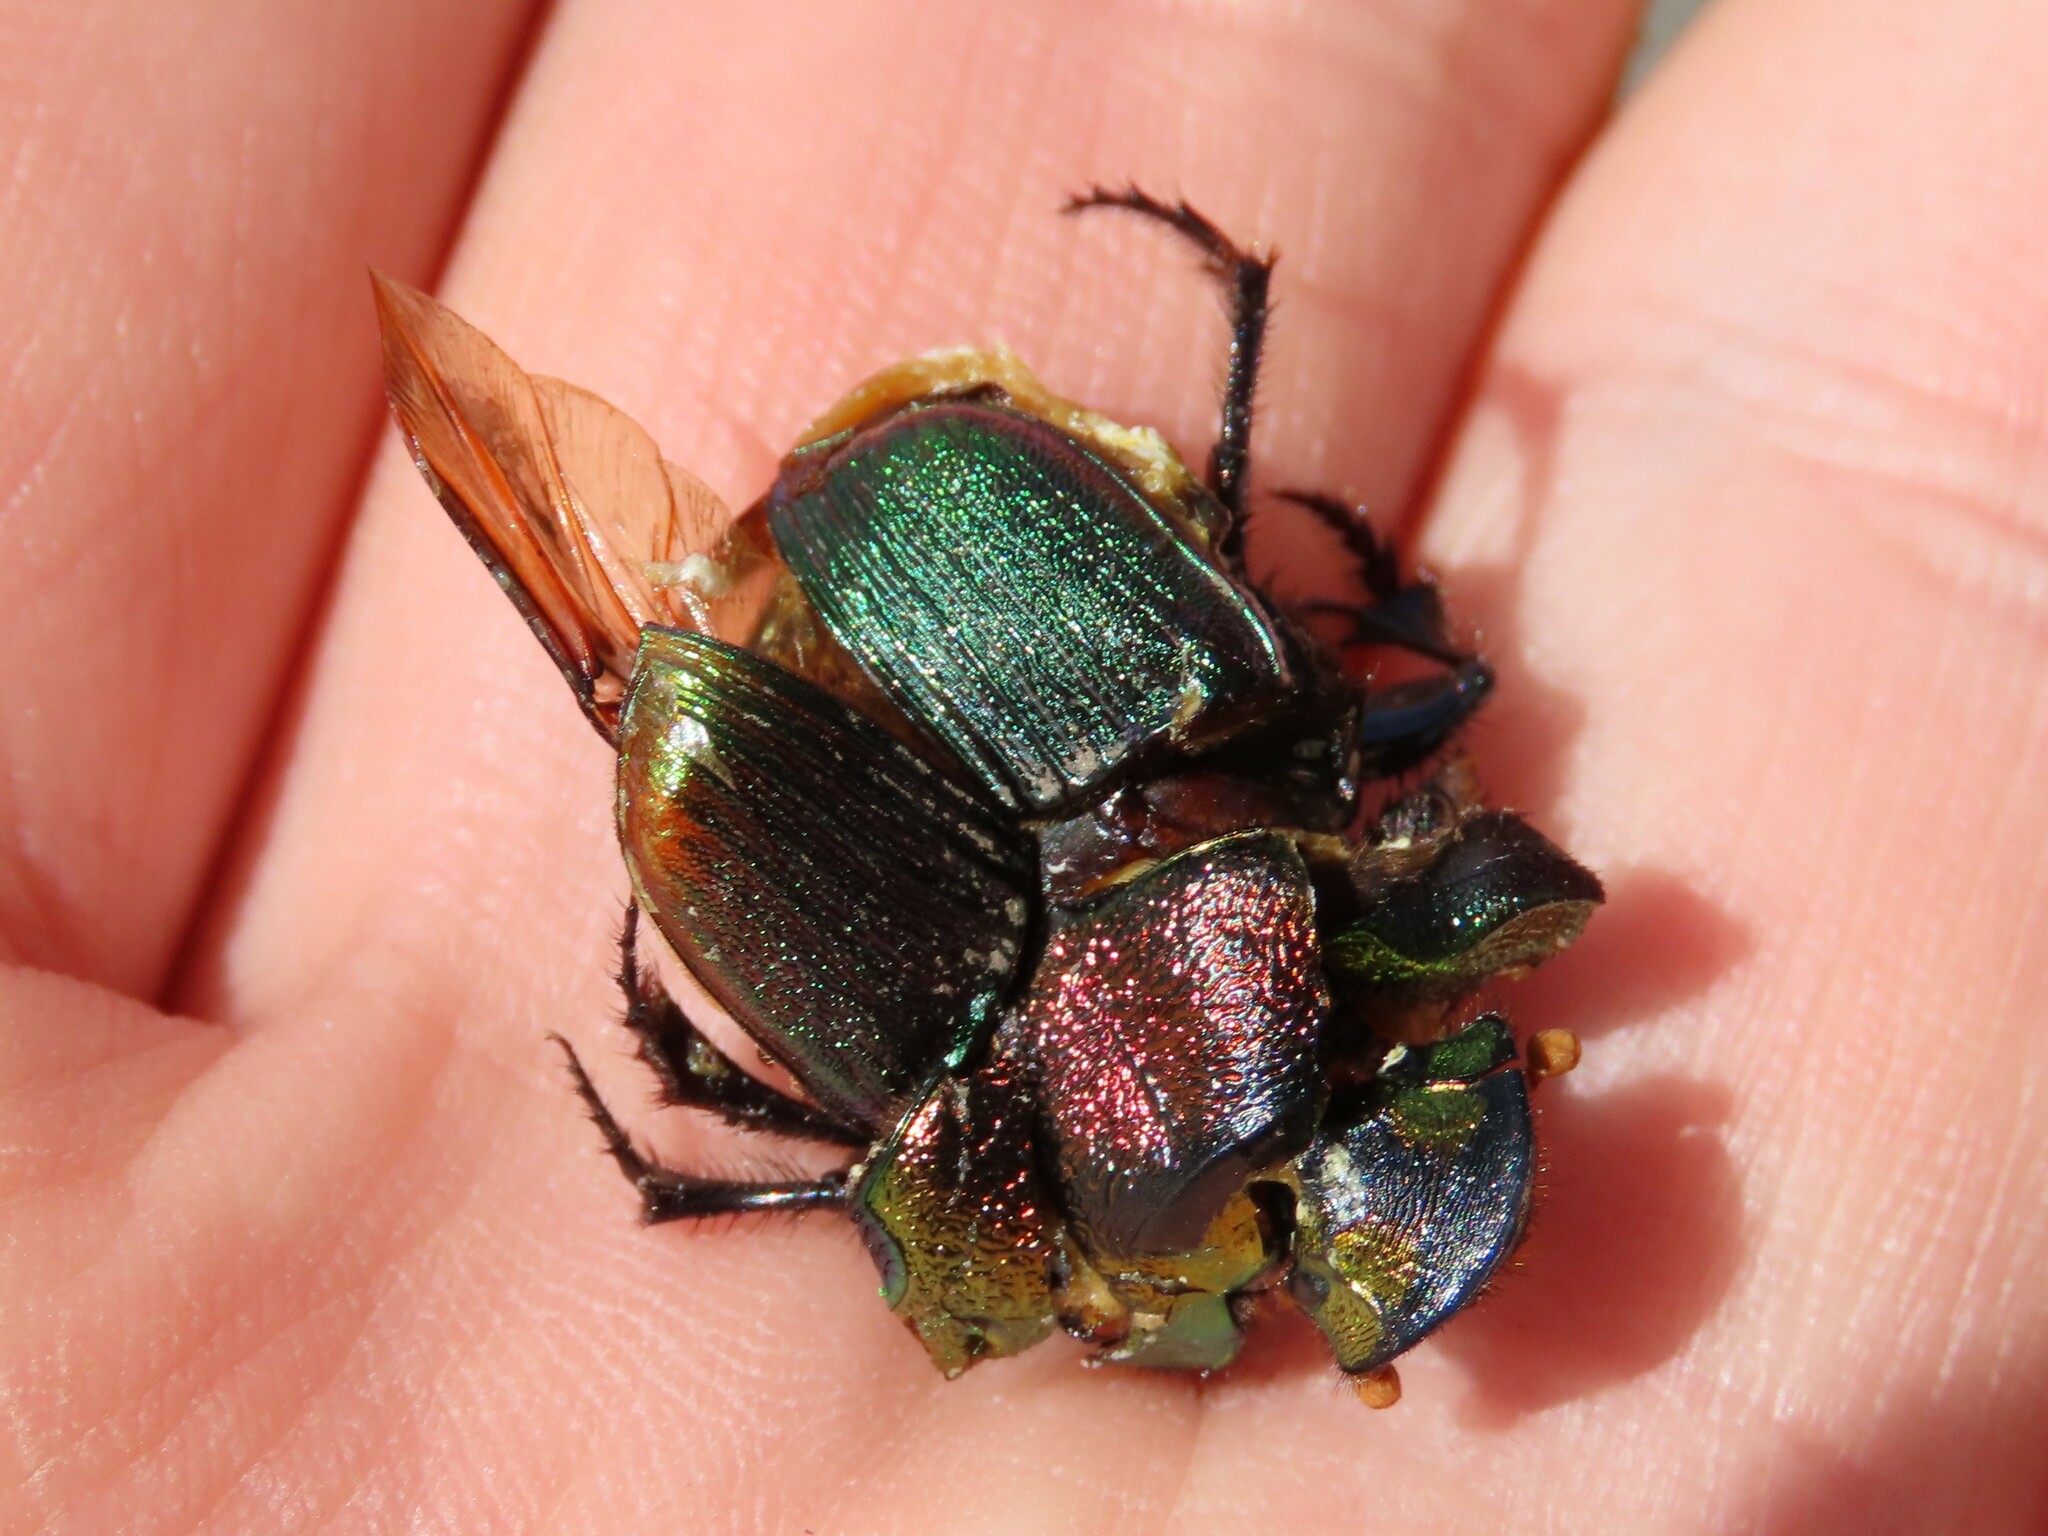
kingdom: Animalia
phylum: Arthropoda
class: Insecta
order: Coleoptera
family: Scarabaeidae
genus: Phanaeus
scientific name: Phanaeus vindex
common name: Rainbow scarab
